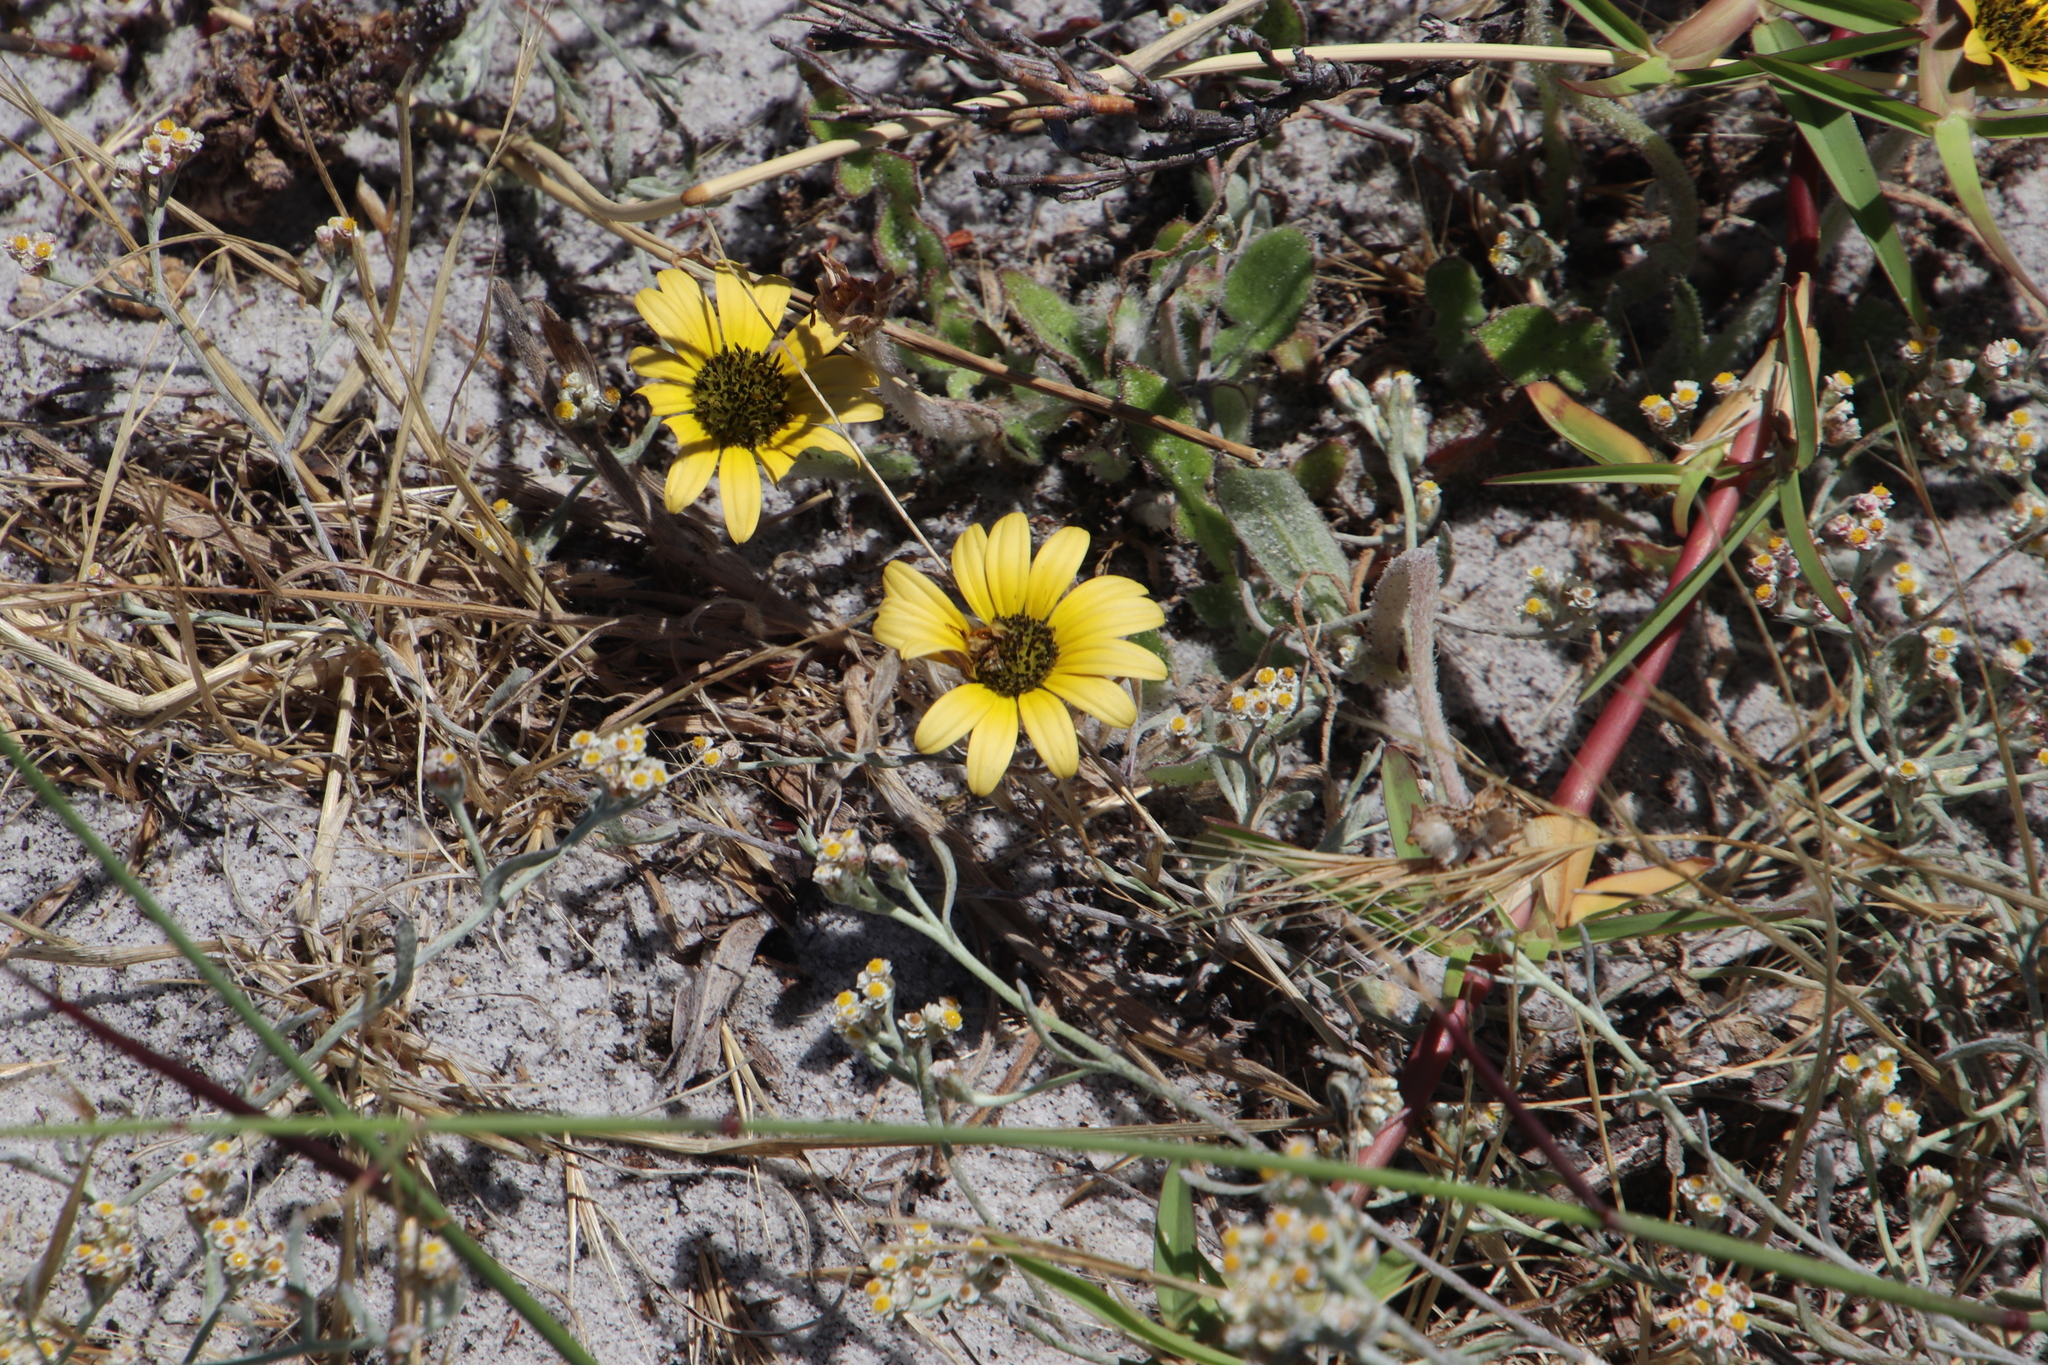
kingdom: Plantae
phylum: Tracheophyta
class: Magnoliopsida
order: Asterales
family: Asteraceae
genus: Arctotheca
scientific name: Arctotheca calendula
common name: Capeweed
